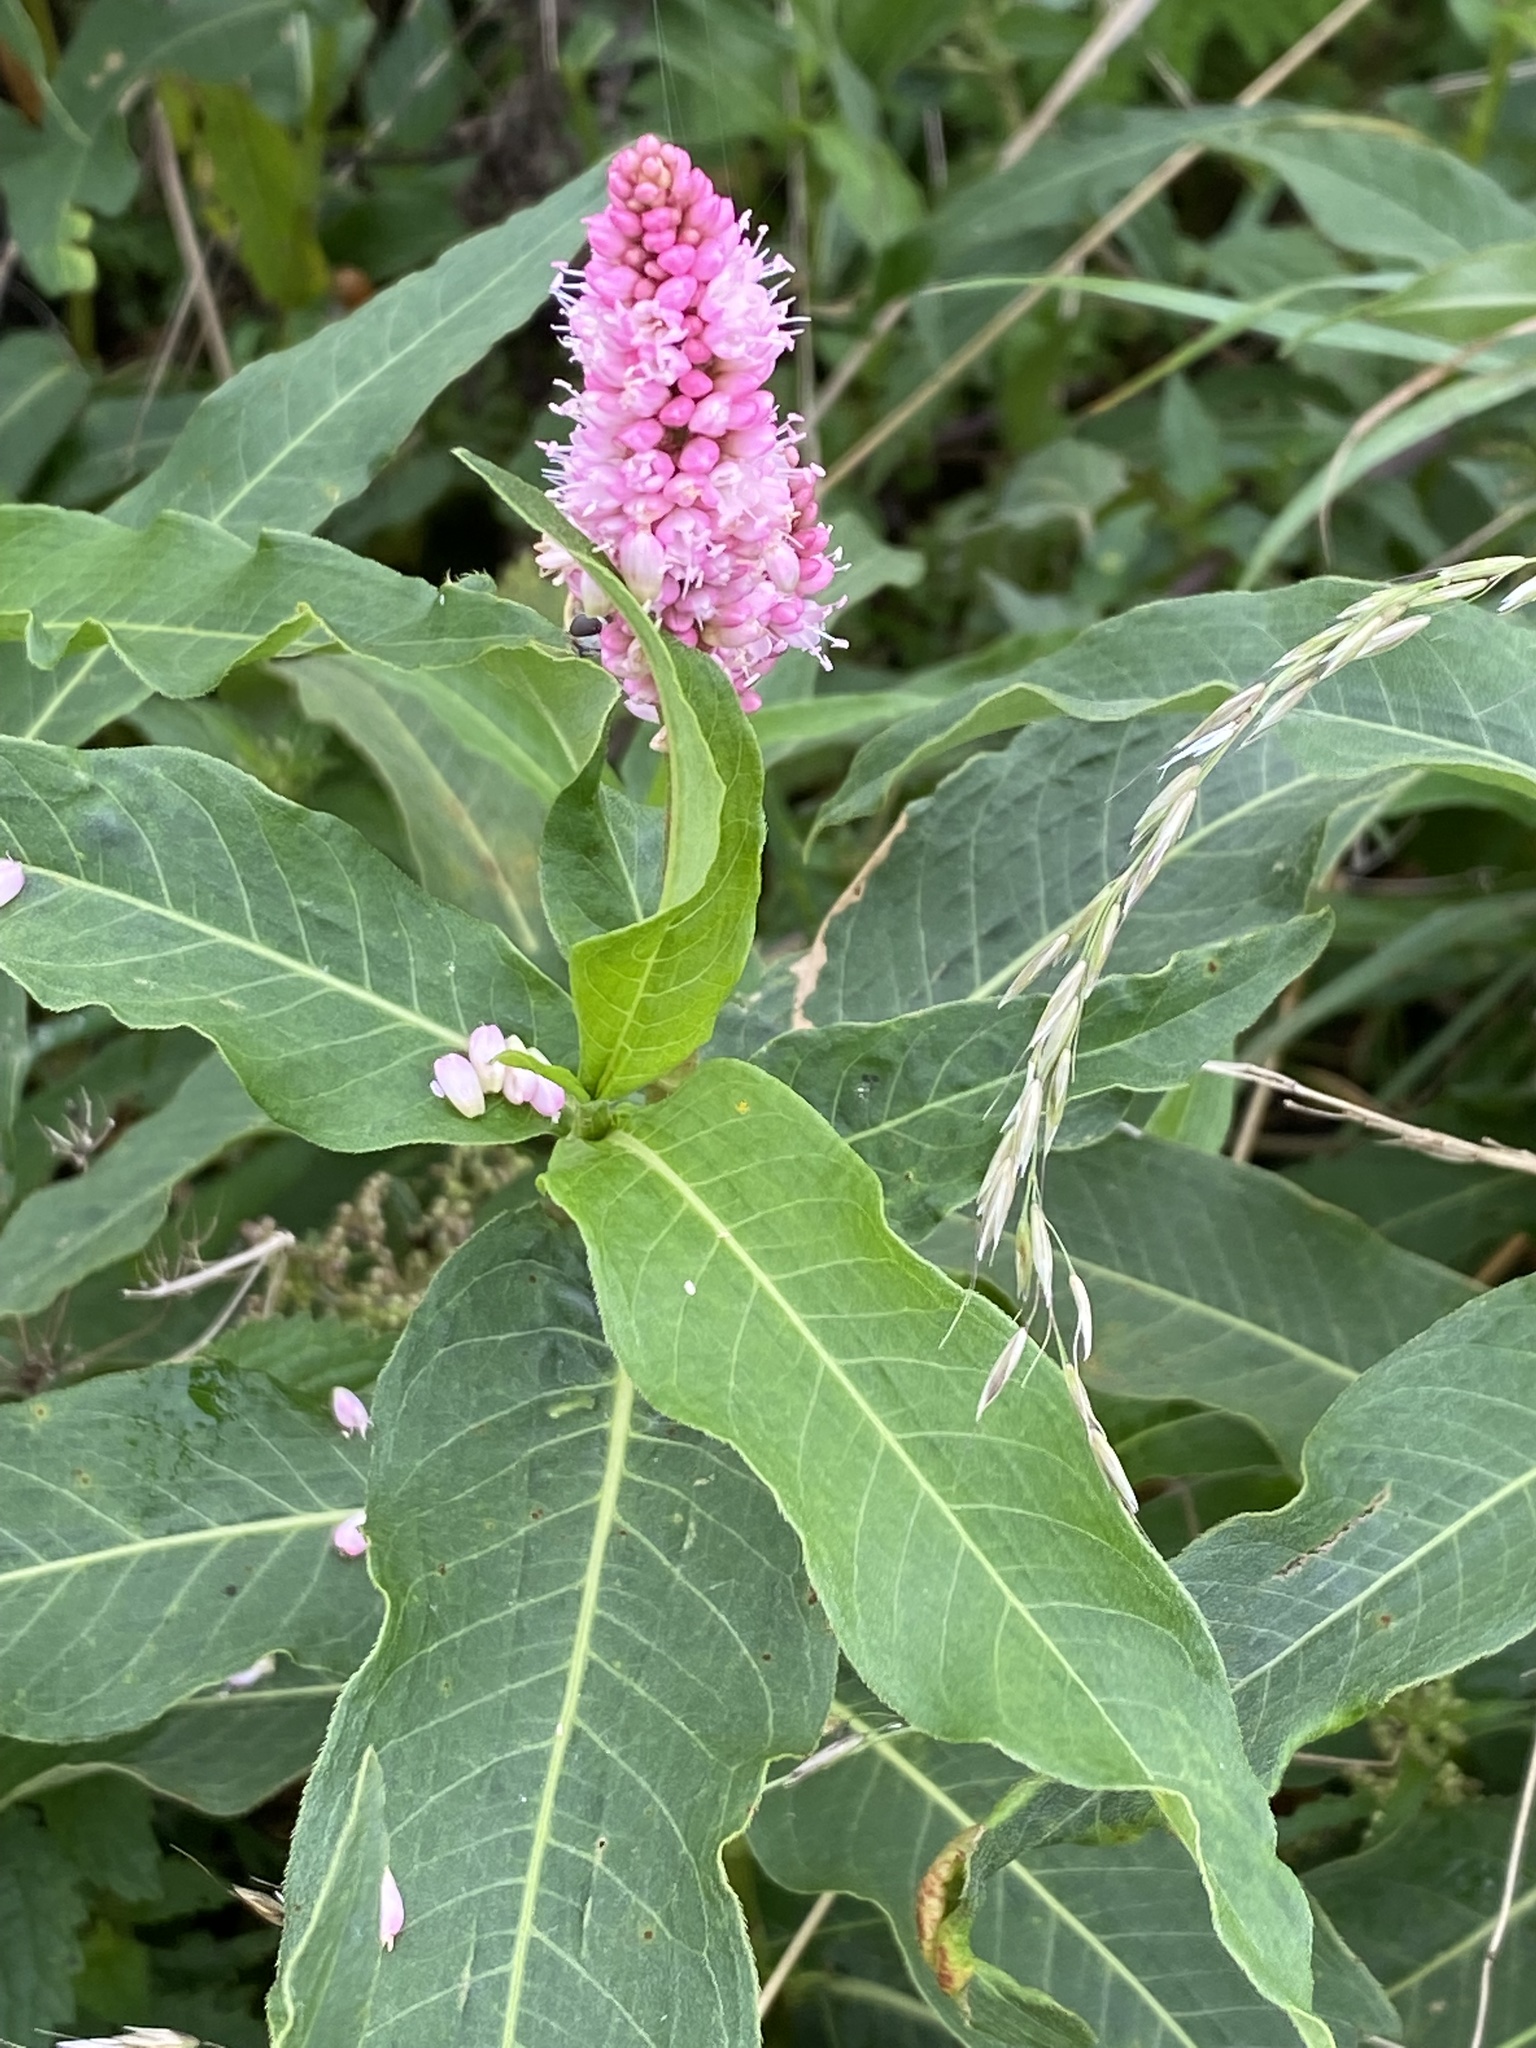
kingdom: Plantae
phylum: Tracheophyta
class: Magnoliopsida
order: Caryophyllales
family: Polygonaceae
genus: Persicaria
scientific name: Persicaria amphibia
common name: Amphibious bistort
